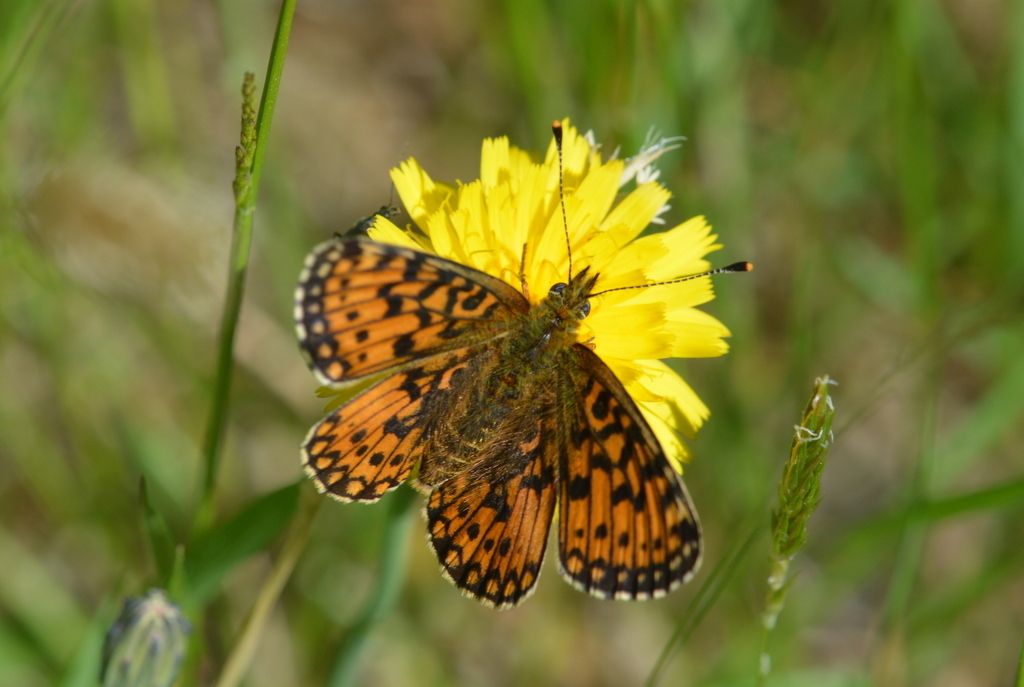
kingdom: Animalia
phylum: Arthropoda
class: Insecta
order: Lepidoptera
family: Nymphalidae
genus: Boloria
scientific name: Boloria selene
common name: Small pearl-bordered fritillary
